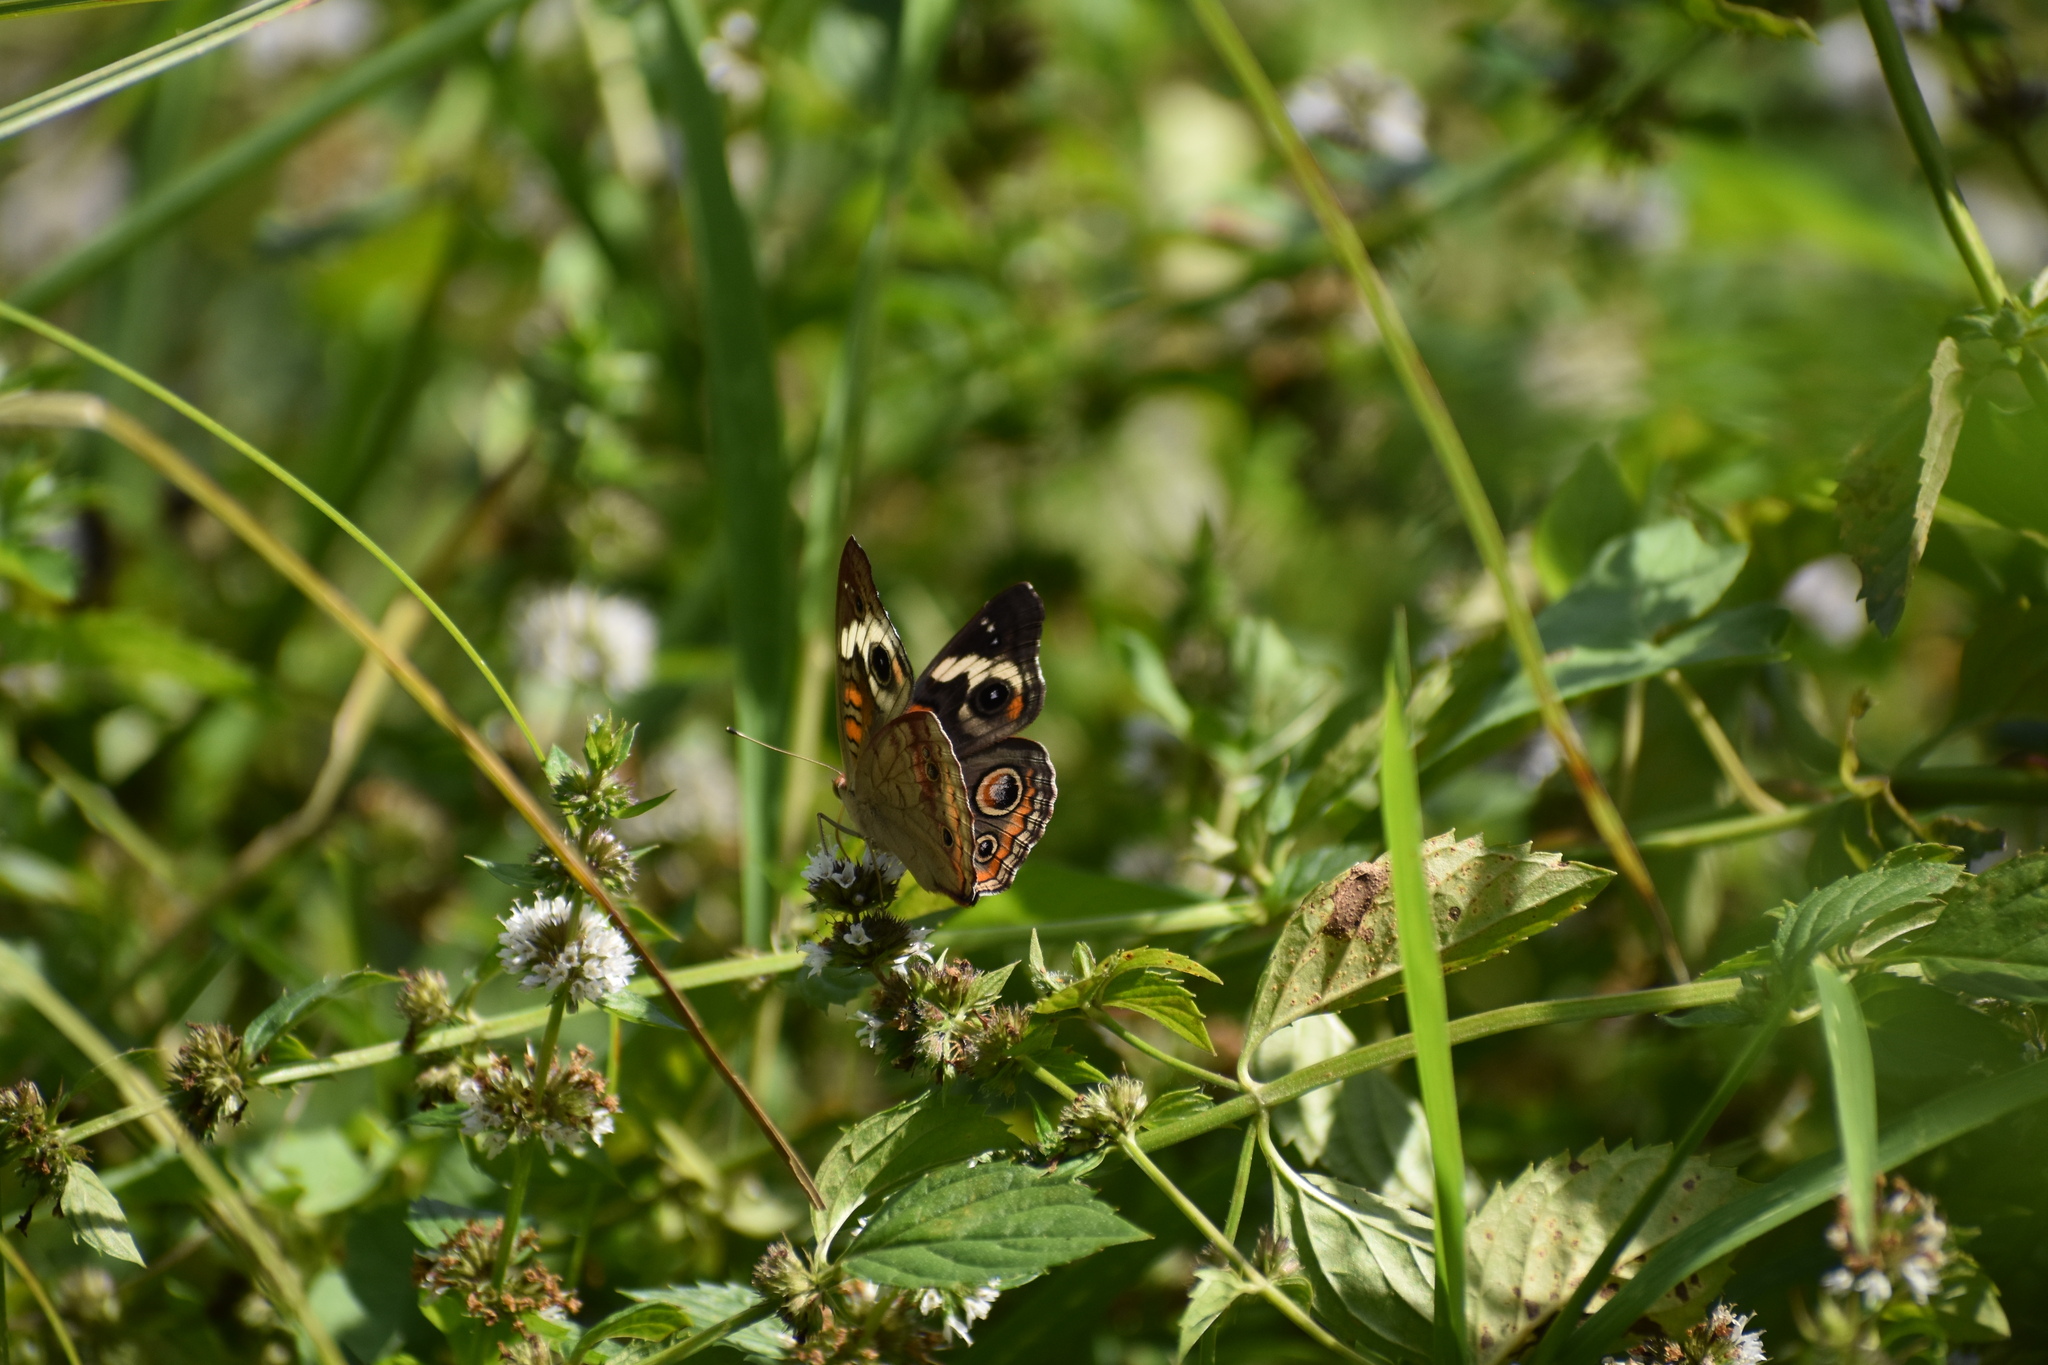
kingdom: Animalia
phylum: Arthropoda
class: Insecta
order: Lepidoptera
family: Nymphalidae
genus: Junonia
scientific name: Junonia coenia
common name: Common buckeye
